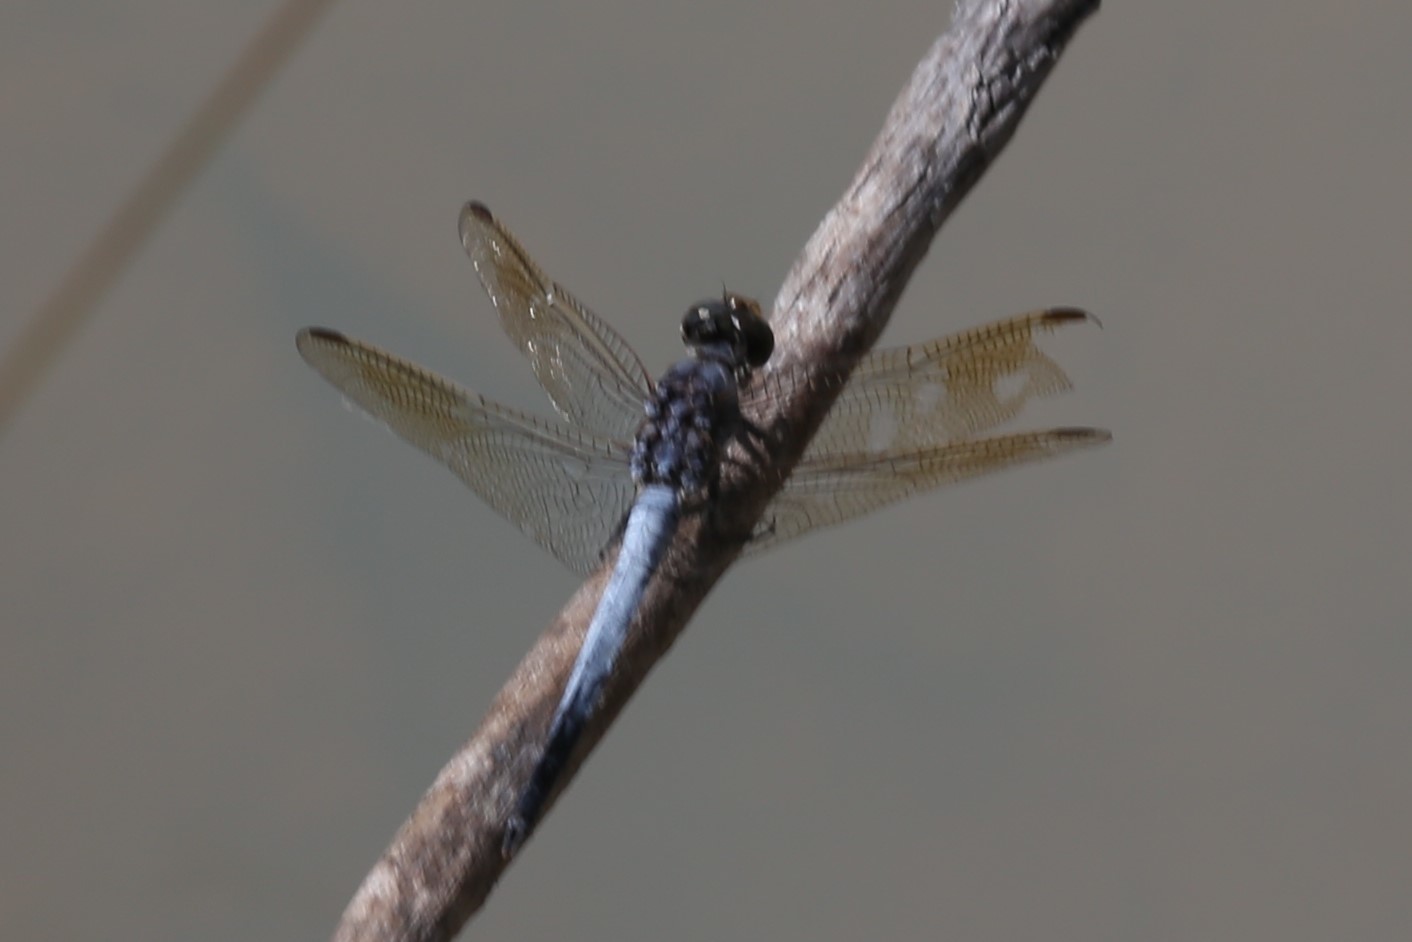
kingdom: Animalia
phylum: Arthropoda
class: Insecta
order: Odonata
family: Libellulidae
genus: Orthetrum
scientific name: Orthetrum caledonicum
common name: Blue skimmer
